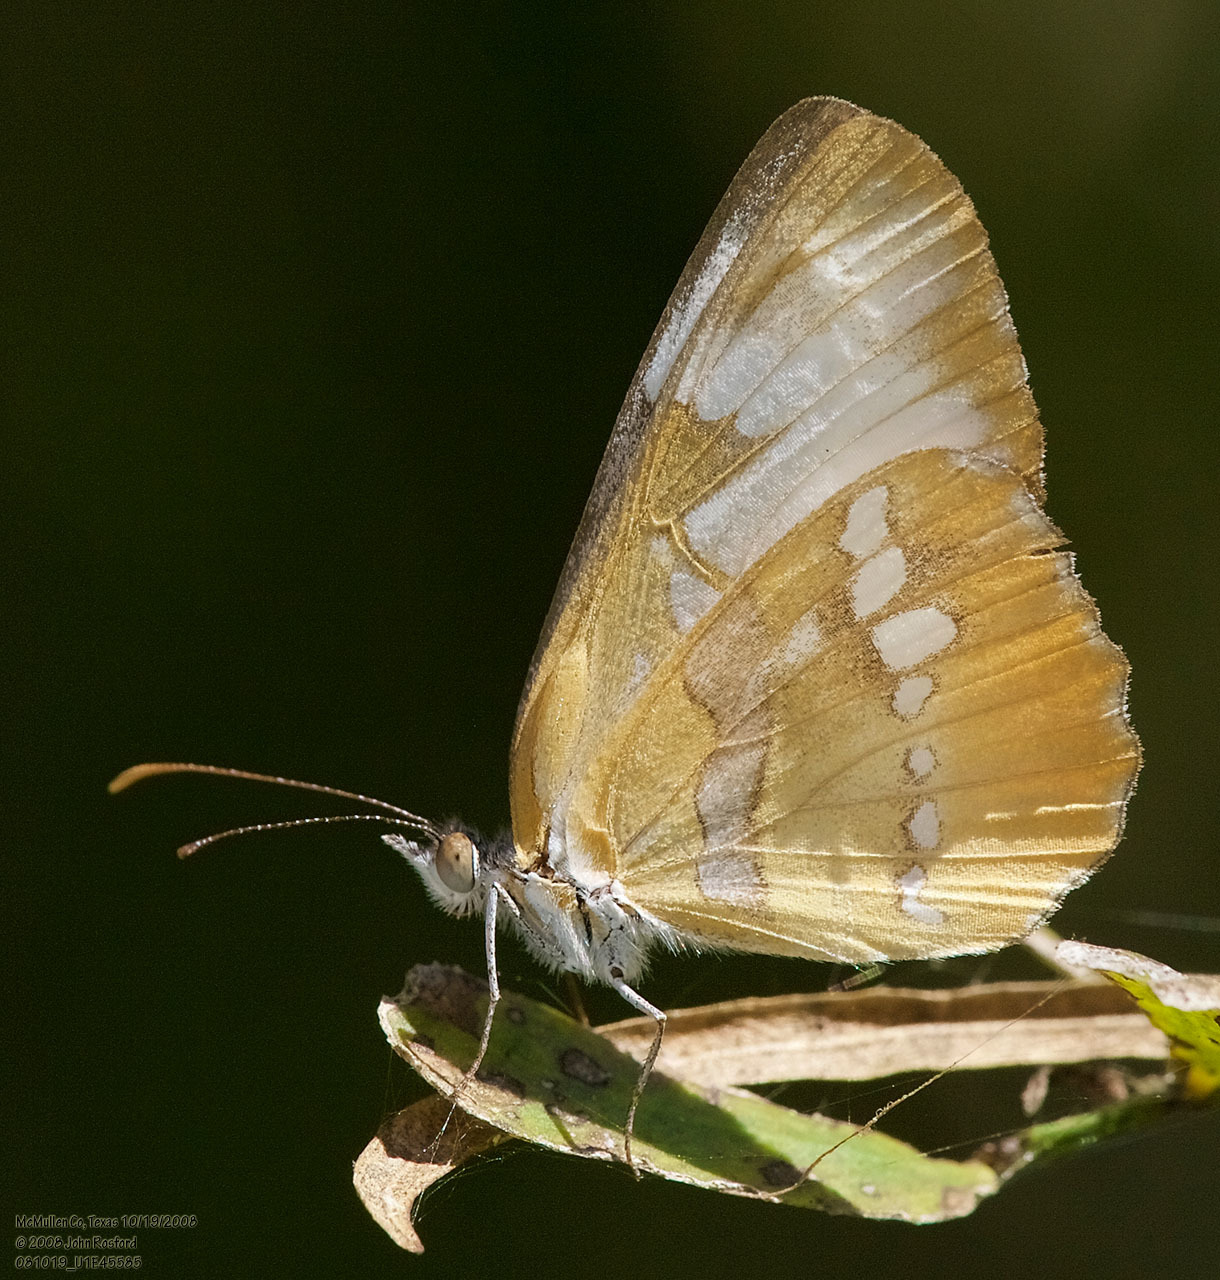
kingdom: Animalia
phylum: Arthropoda
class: Insecta
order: Lepidoptera
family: Nymphalidae
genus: Mestra
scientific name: Mestra amymone
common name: Common mestra
